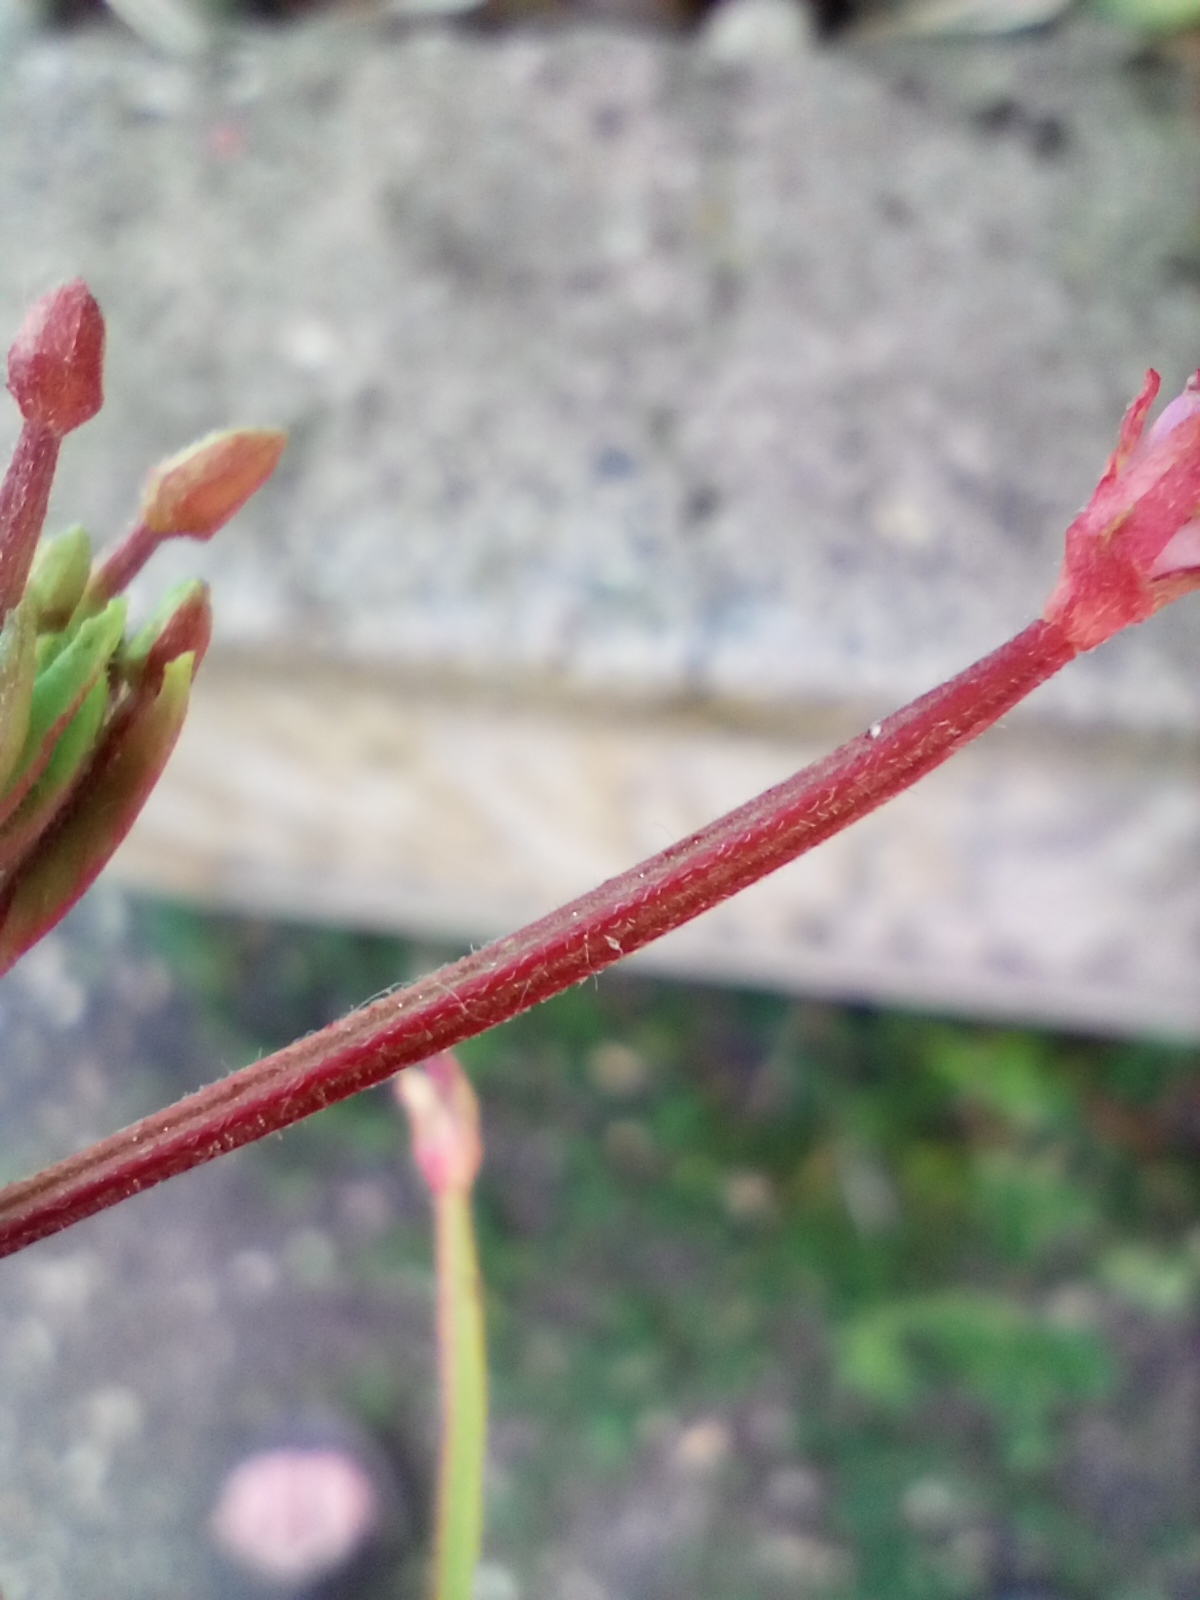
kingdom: Plantae
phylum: Tracheophyta
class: Magnoliopsida
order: Myrtales
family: Onagraceae
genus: Epilobium
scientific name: Epilobium ciliatum
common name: American willowherb
